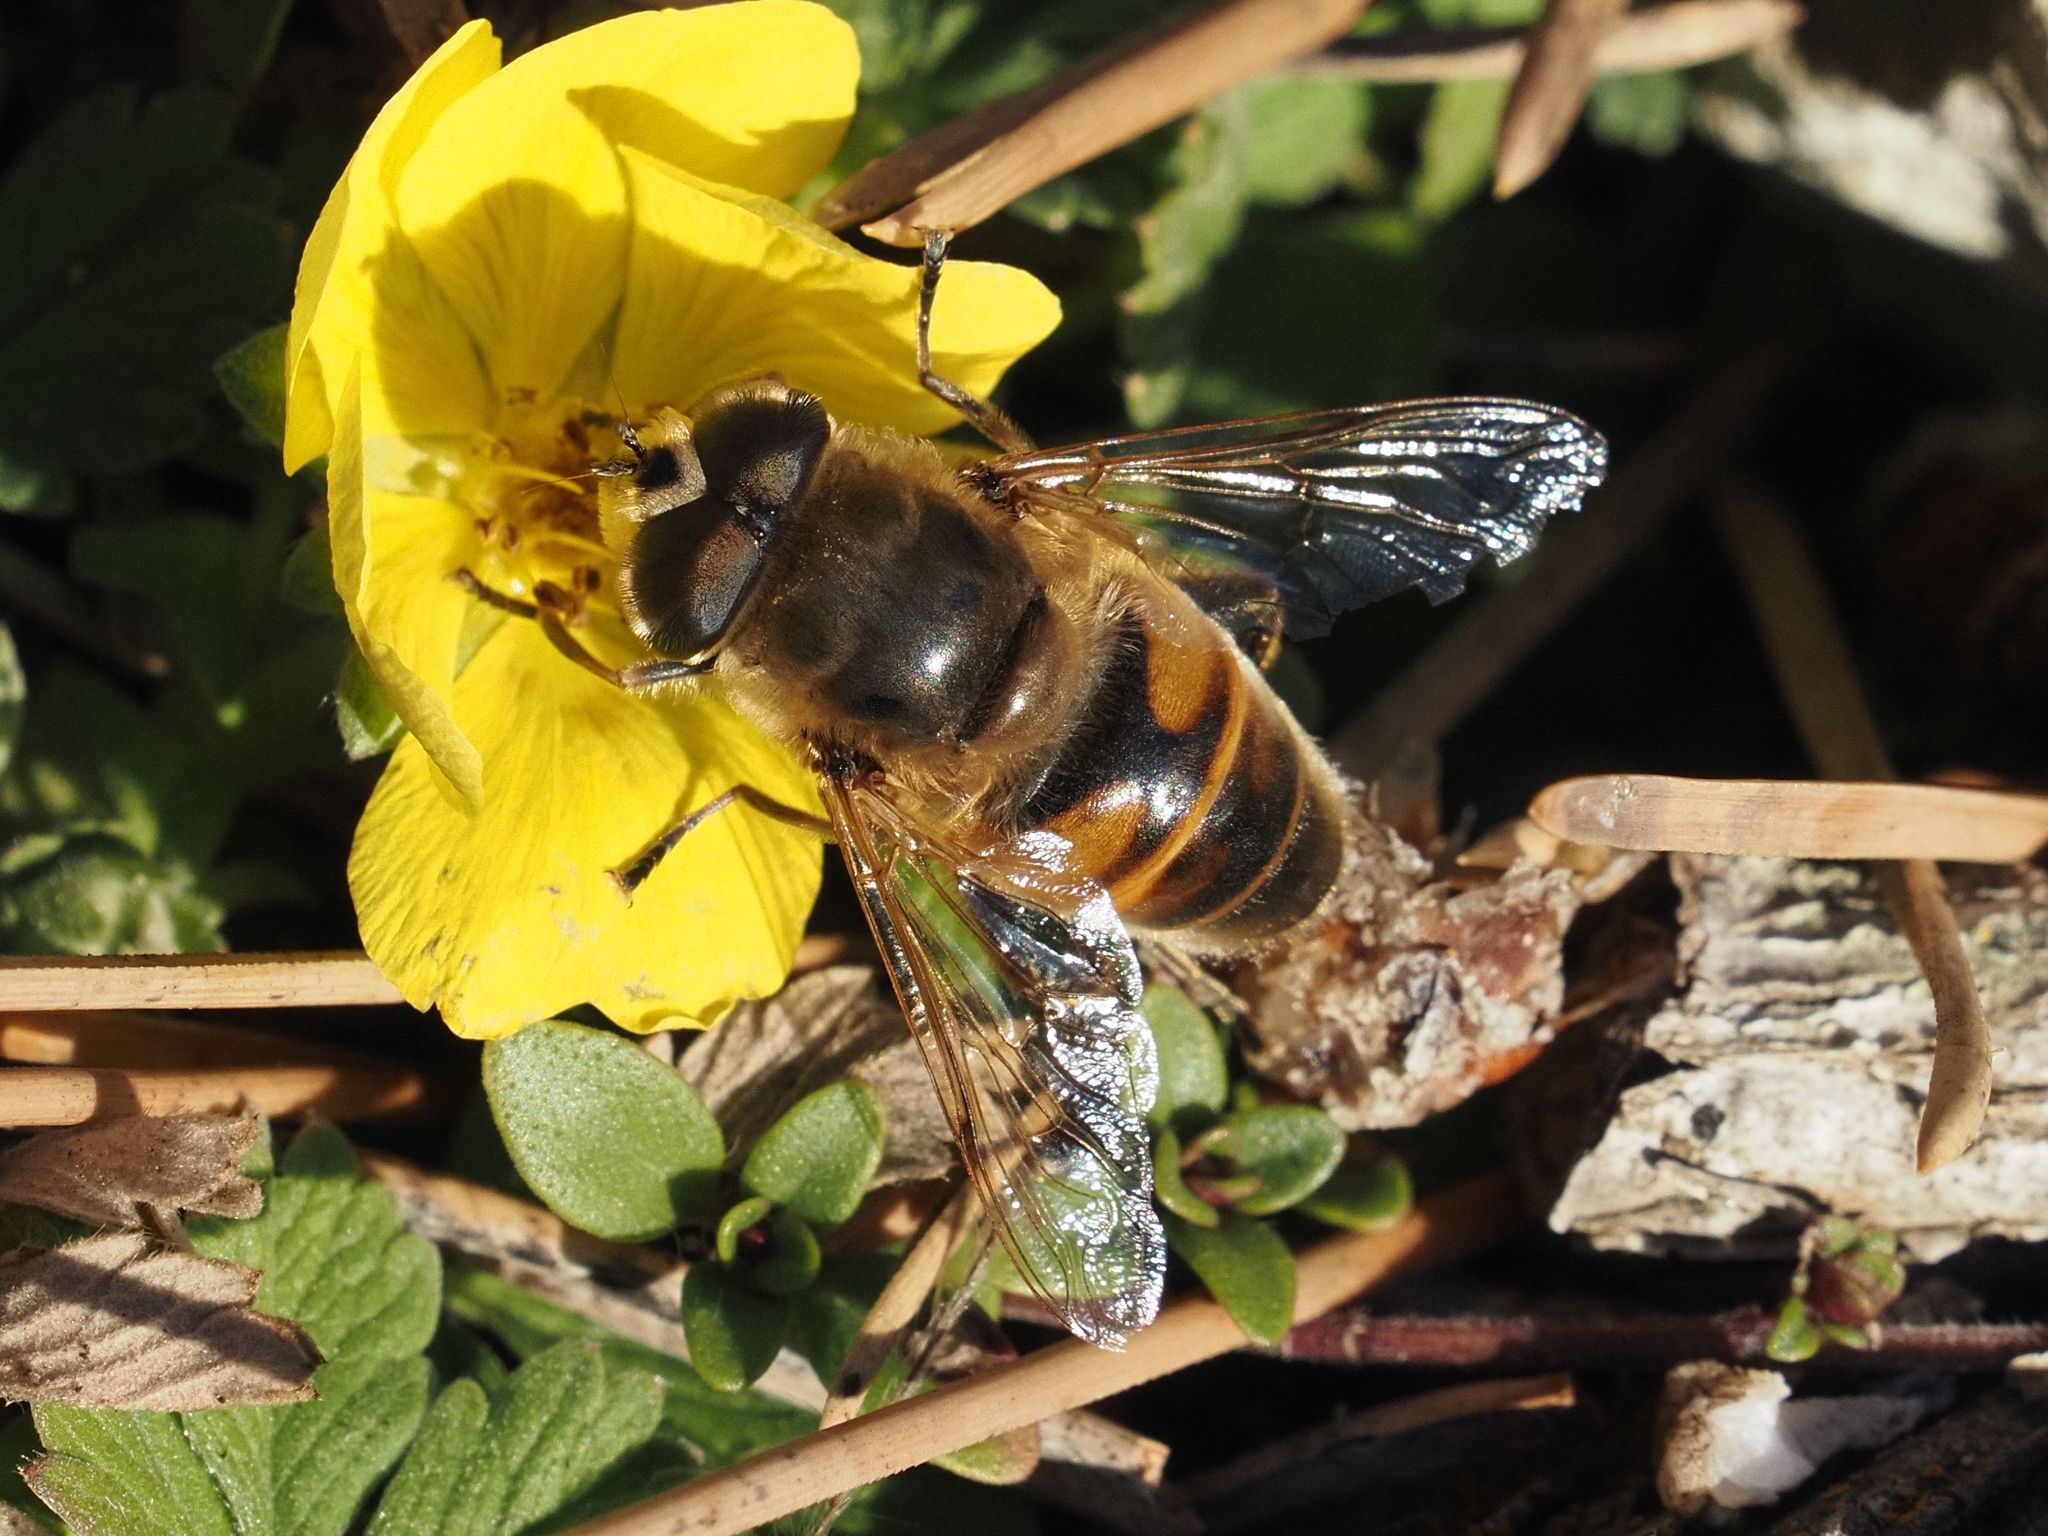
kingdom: Animalia
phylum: Arthropoda
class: Insecta
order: Diptera
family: Syrphidae
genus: Eristalis
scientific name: Eristalis tenax
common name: Drone fly
